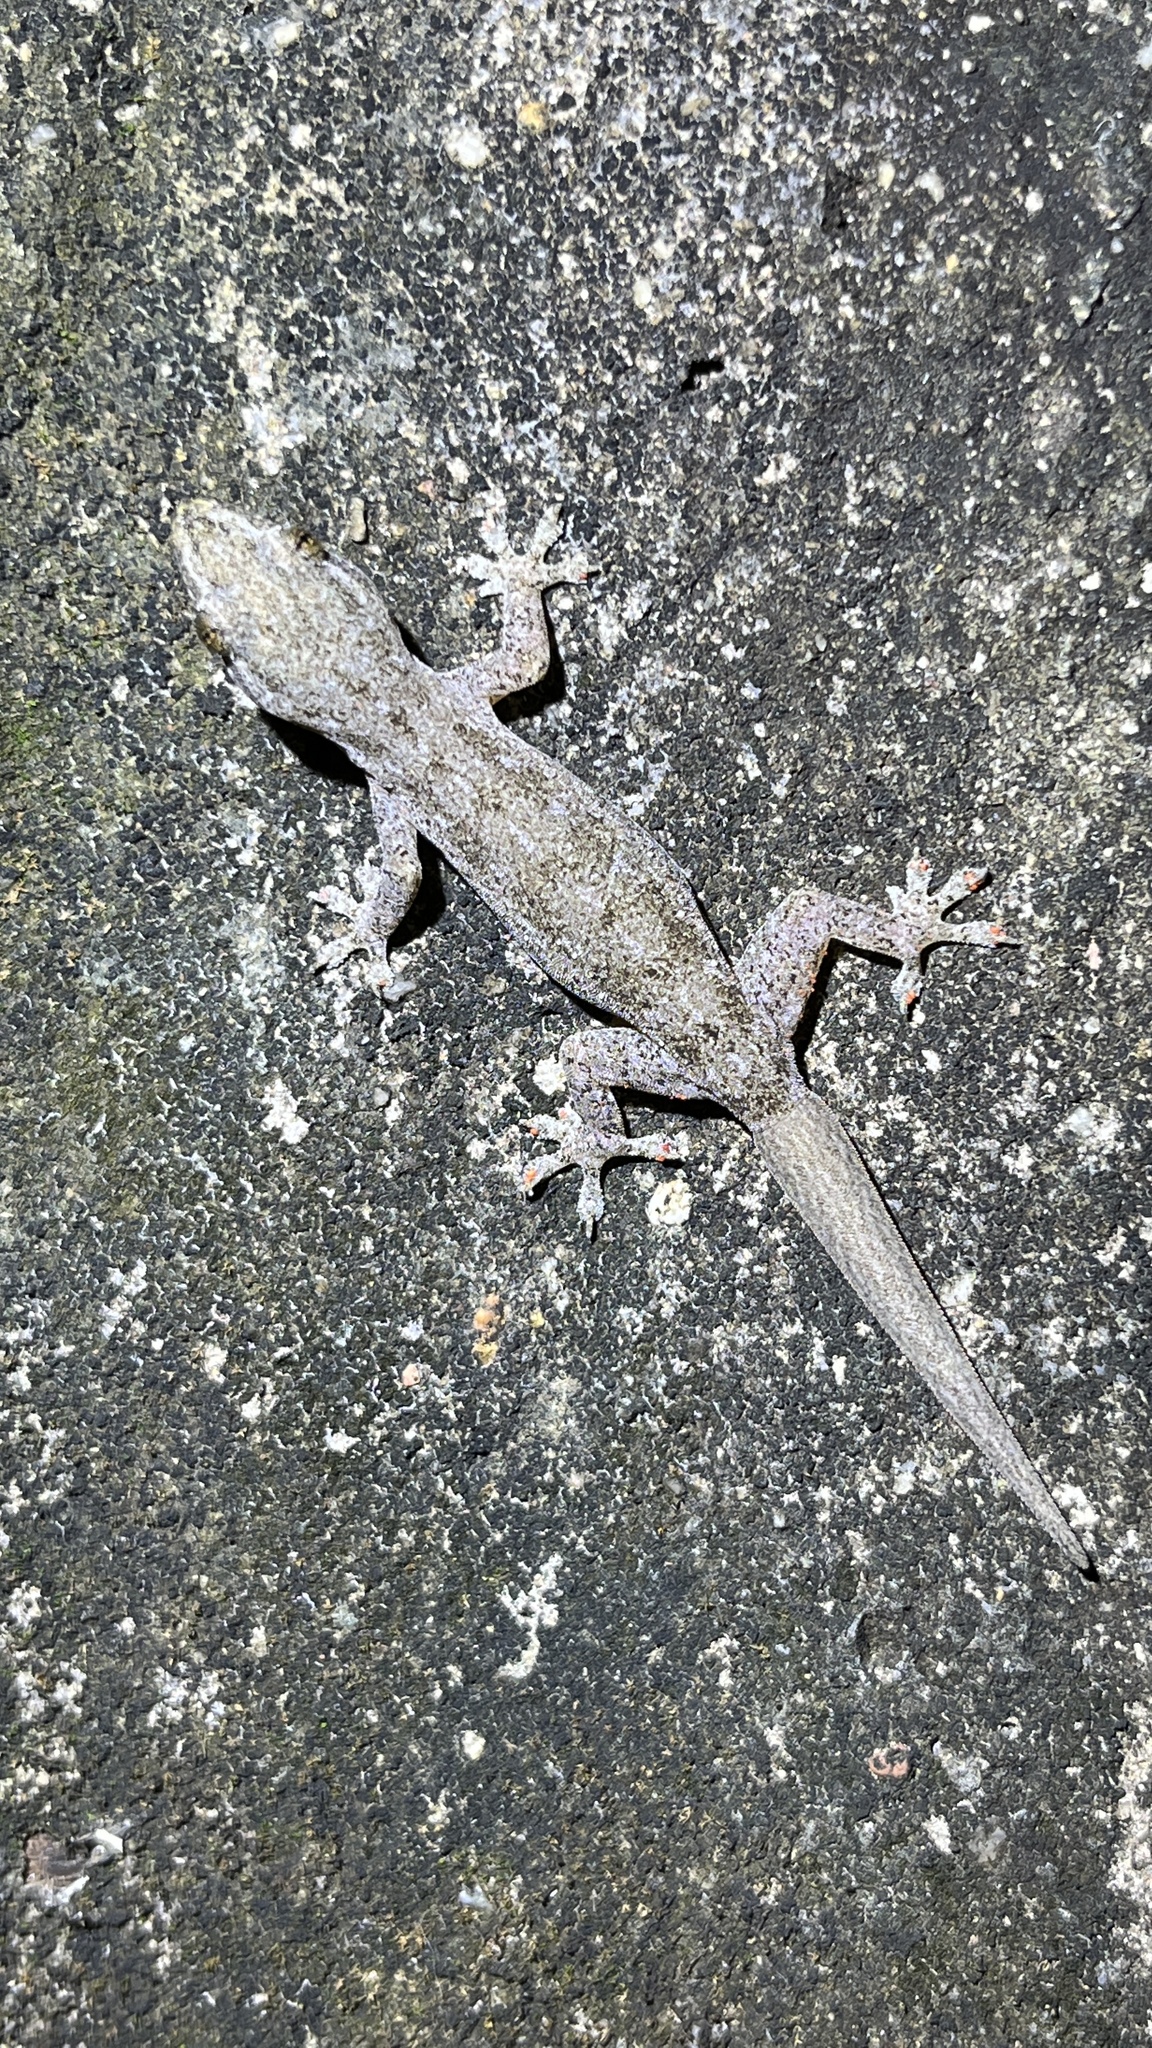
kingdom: Animalia
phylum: Chordata
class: Squamata
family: Gekkonidae
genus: Hemidactylus
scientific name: Hemidactylus frenatus
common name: Common house gecko
